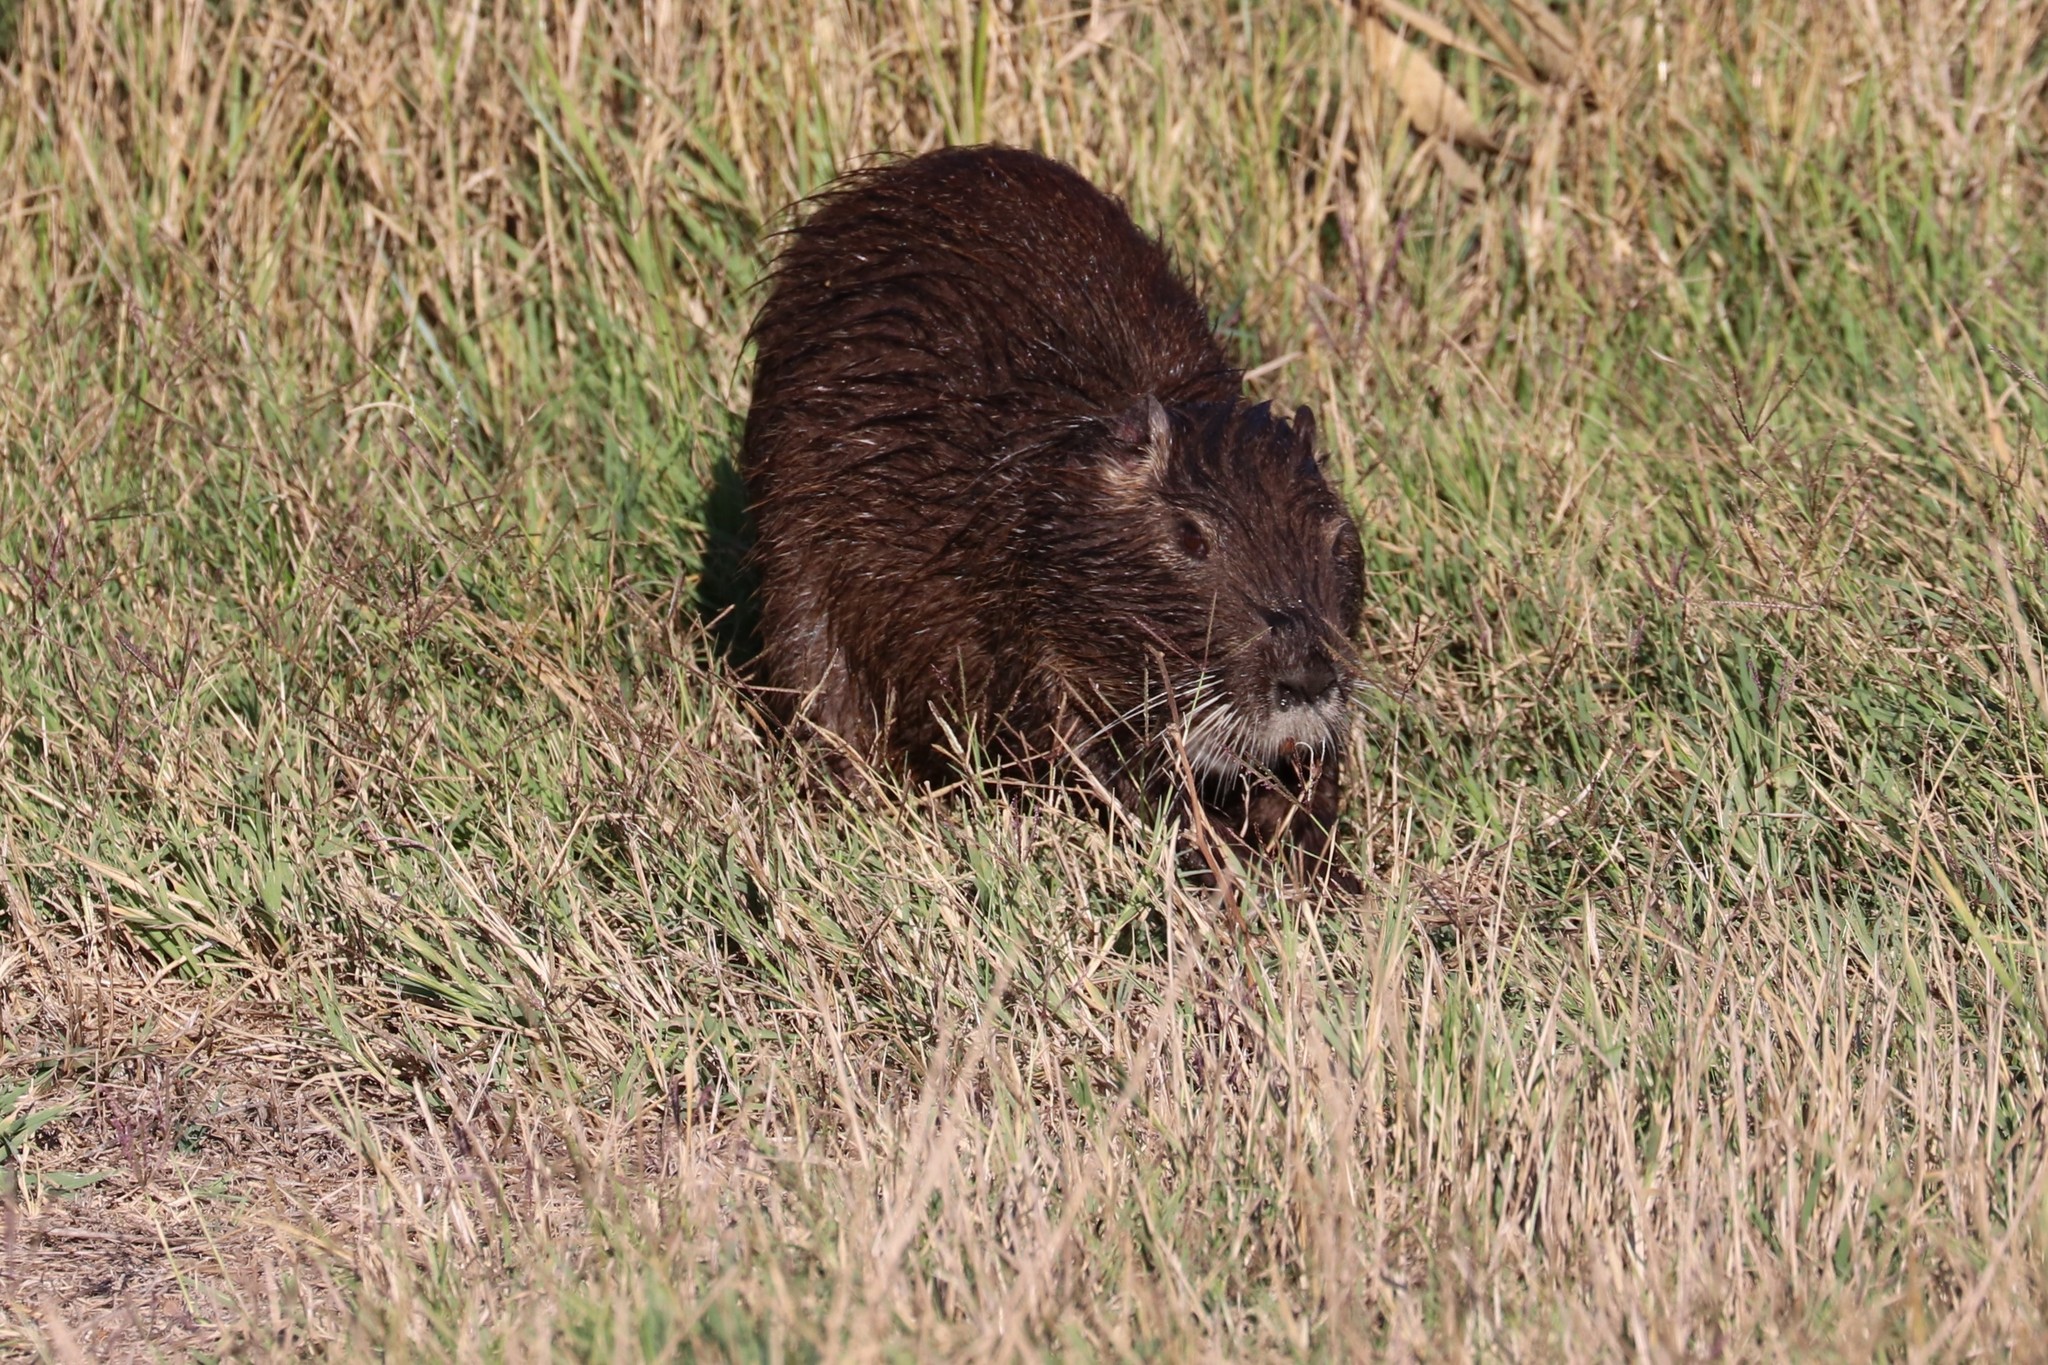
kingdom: Animalia
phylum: Chordata
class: Mammalia
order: Rodentia
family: Myocastoridae
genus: Myocastor
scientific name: Myocastor coypus
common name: Coypu
